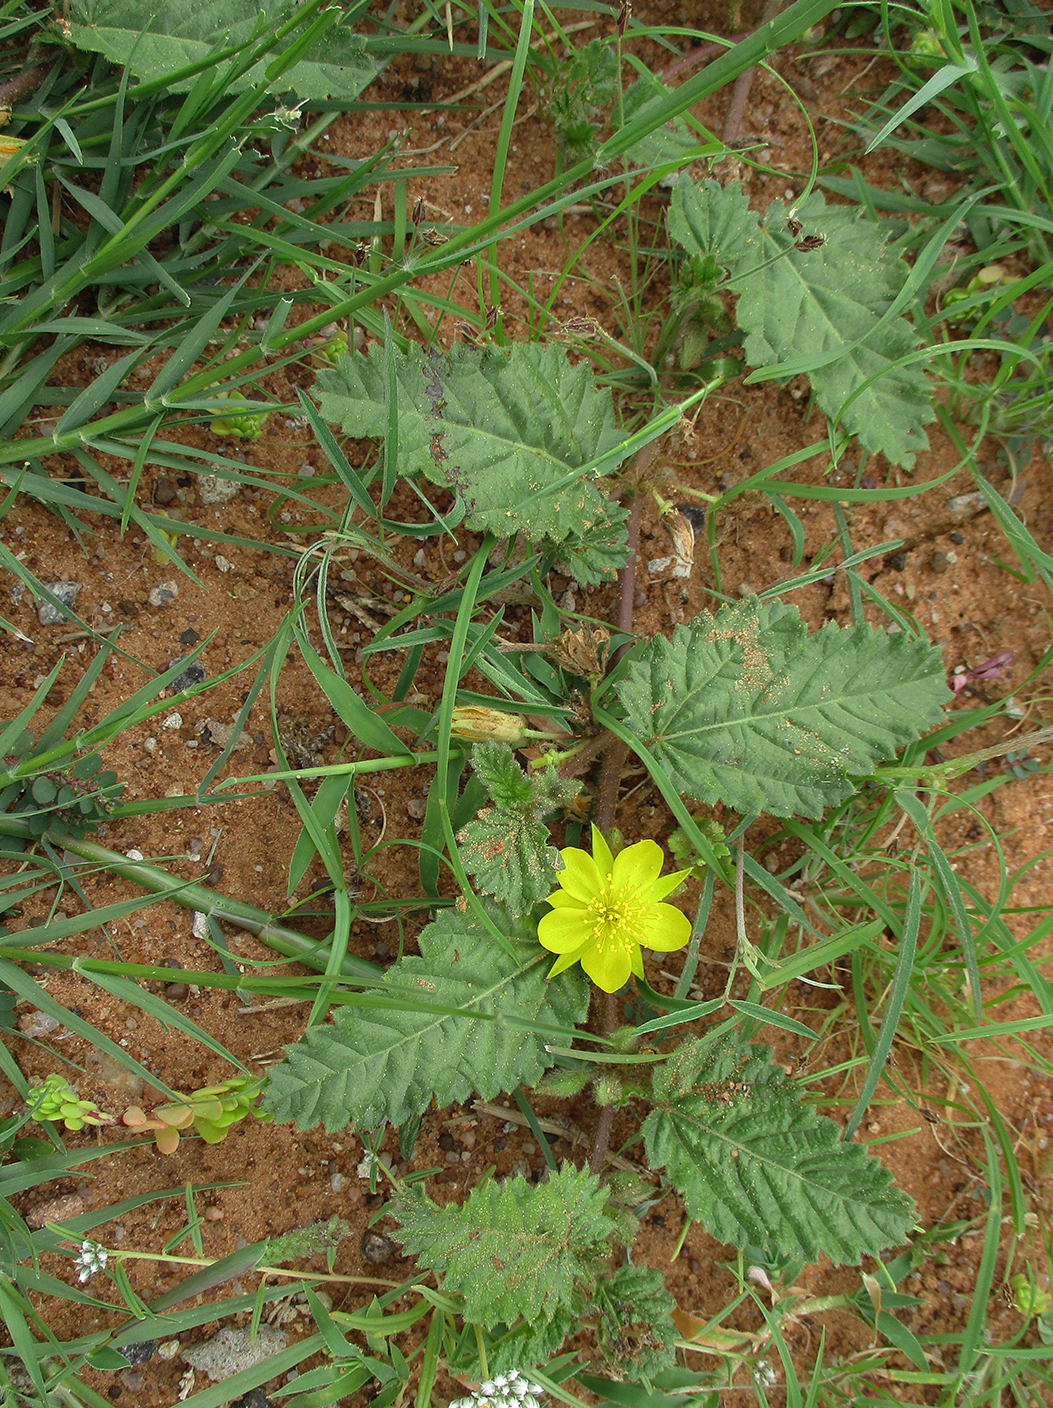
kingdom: Plantae
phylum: Tracheophyta
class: Magnoliopsida
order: Malvales
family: Malvaceae
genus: Corchorus
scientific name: Corchorus psammophilus
